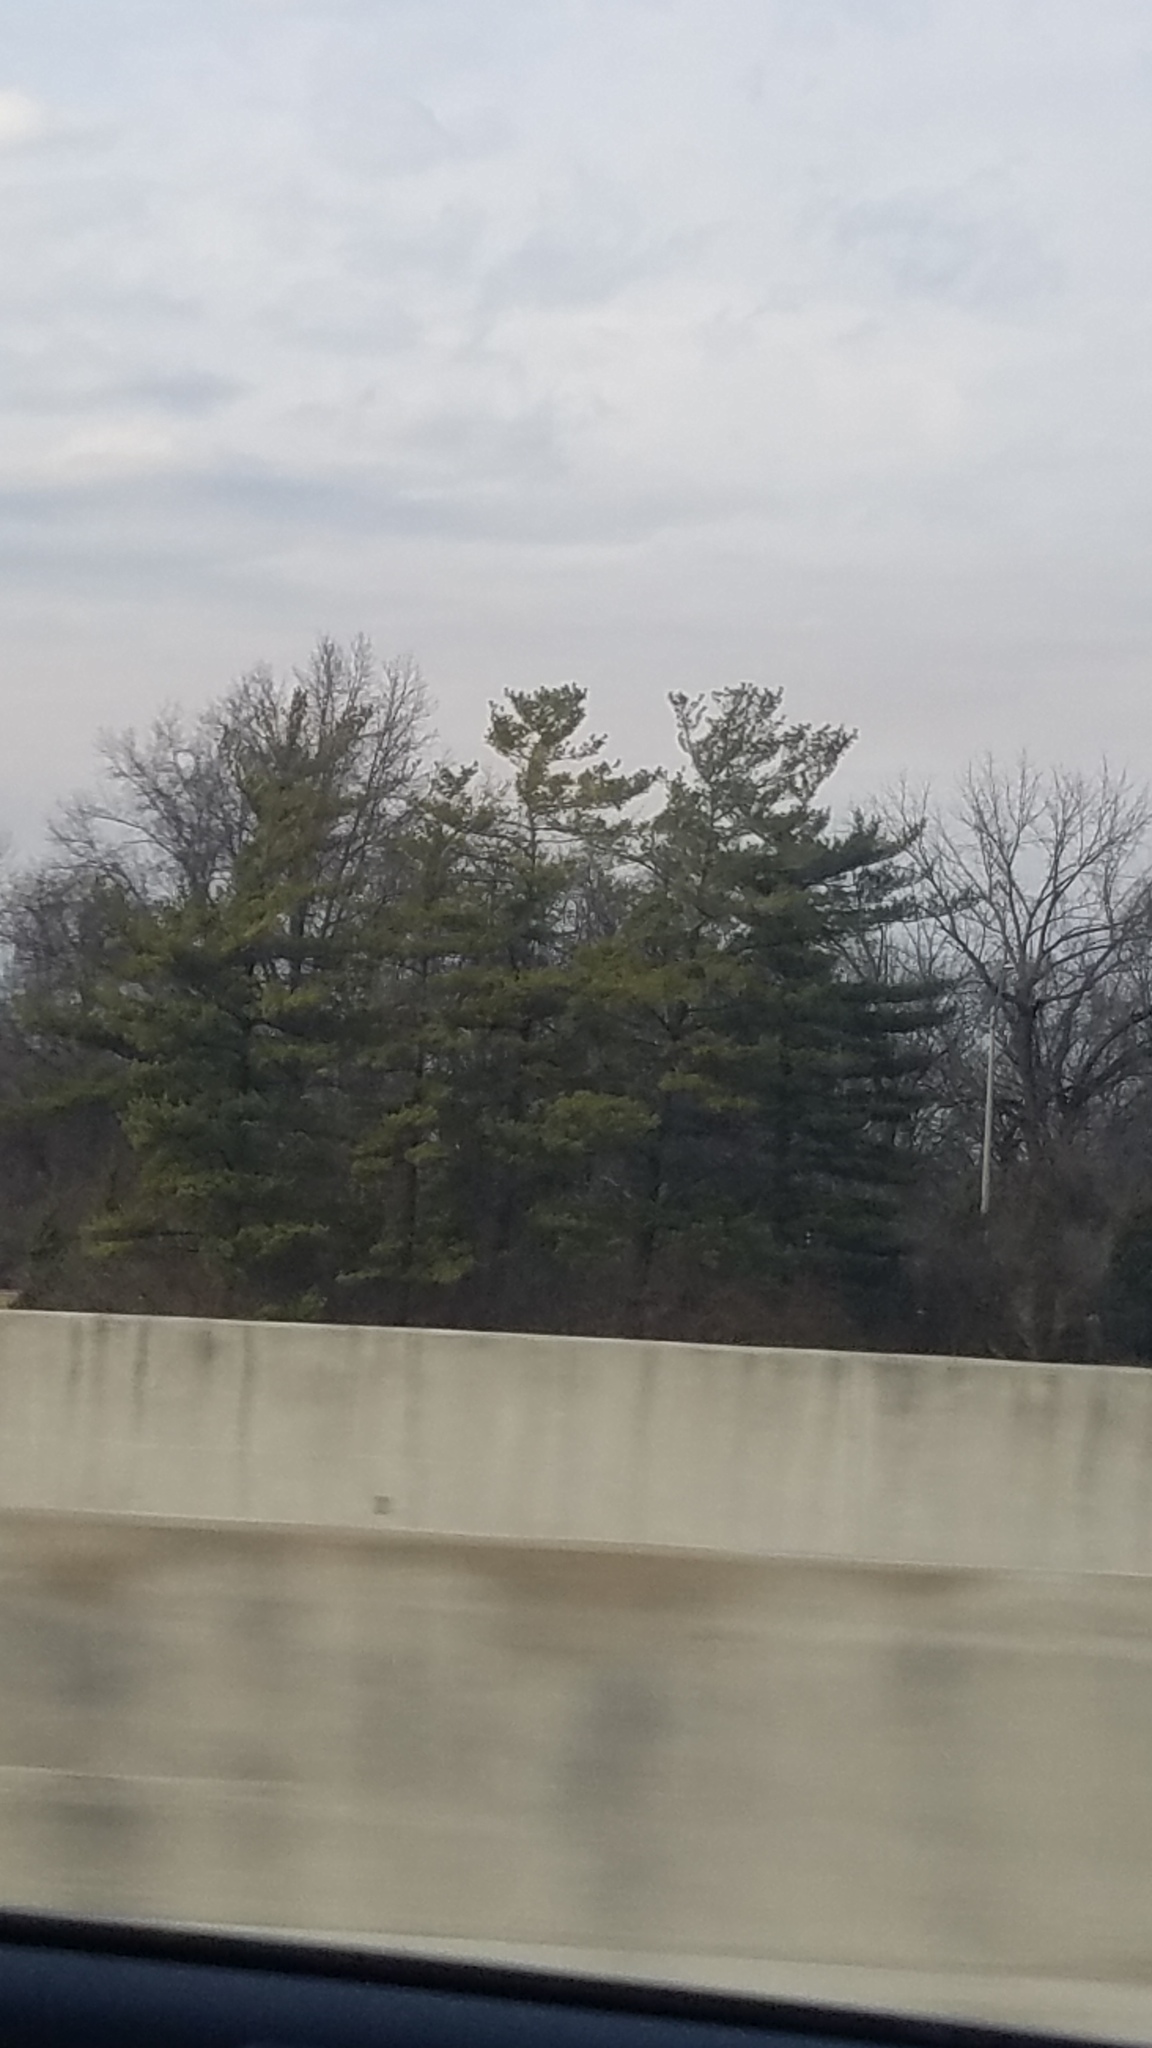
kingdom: Plantae
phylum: Tracheophyta
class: Pinopsida
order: Pinales
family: Pinaceae
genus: Pinus
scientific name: Pinus strobus
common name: Weymouth pine
